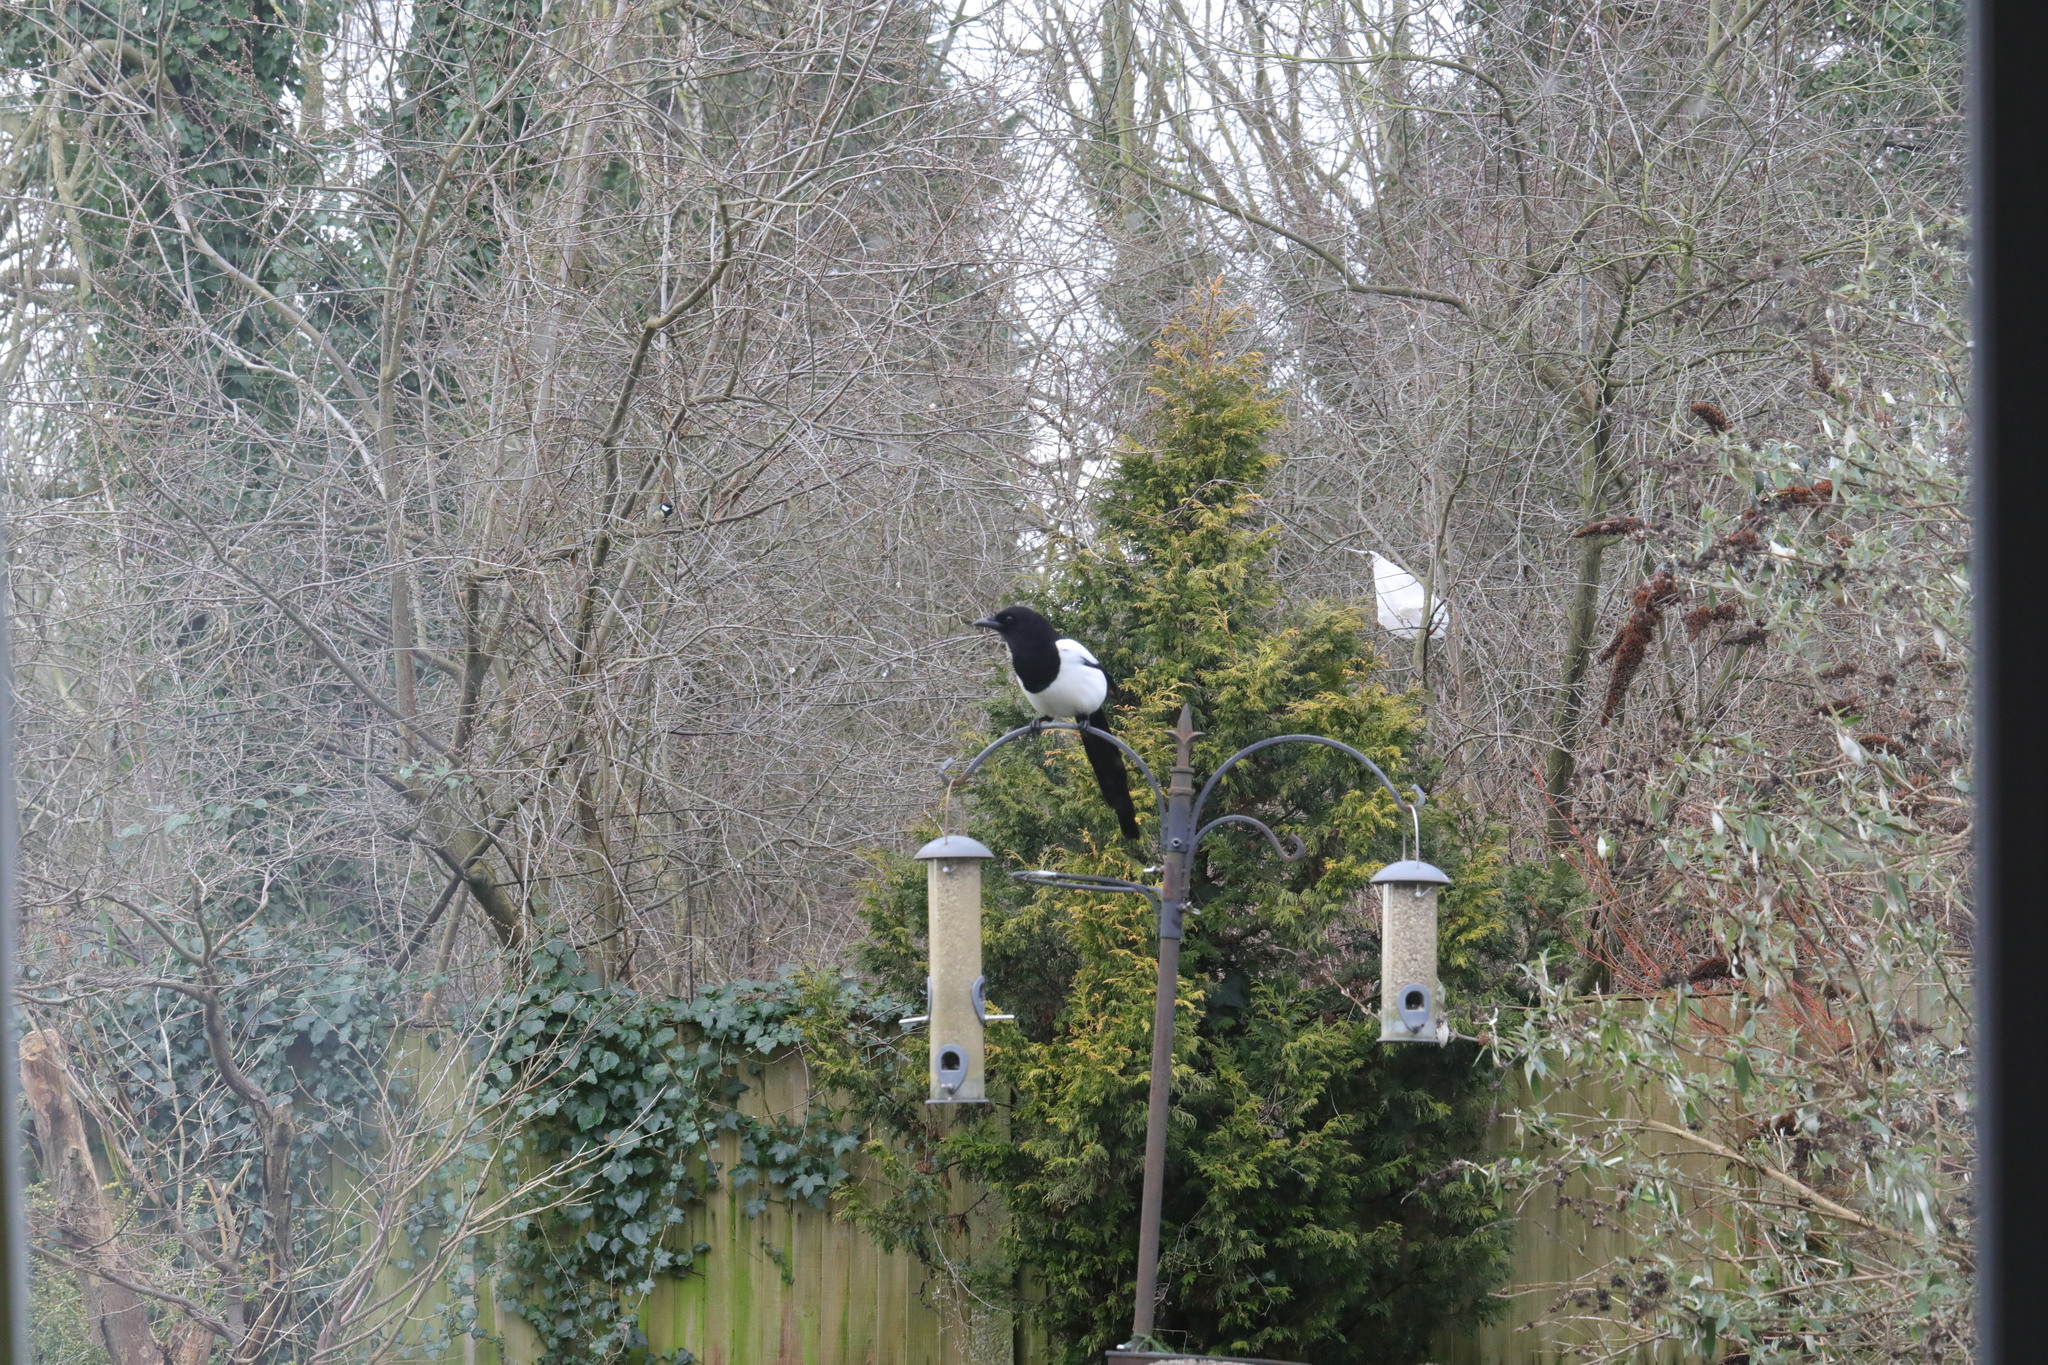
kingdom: Animalia
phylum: Chordata
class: Aves
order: Passeriformes
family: Corvidae
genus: Pica
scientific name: Pica pica
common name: Eurasian magpie
